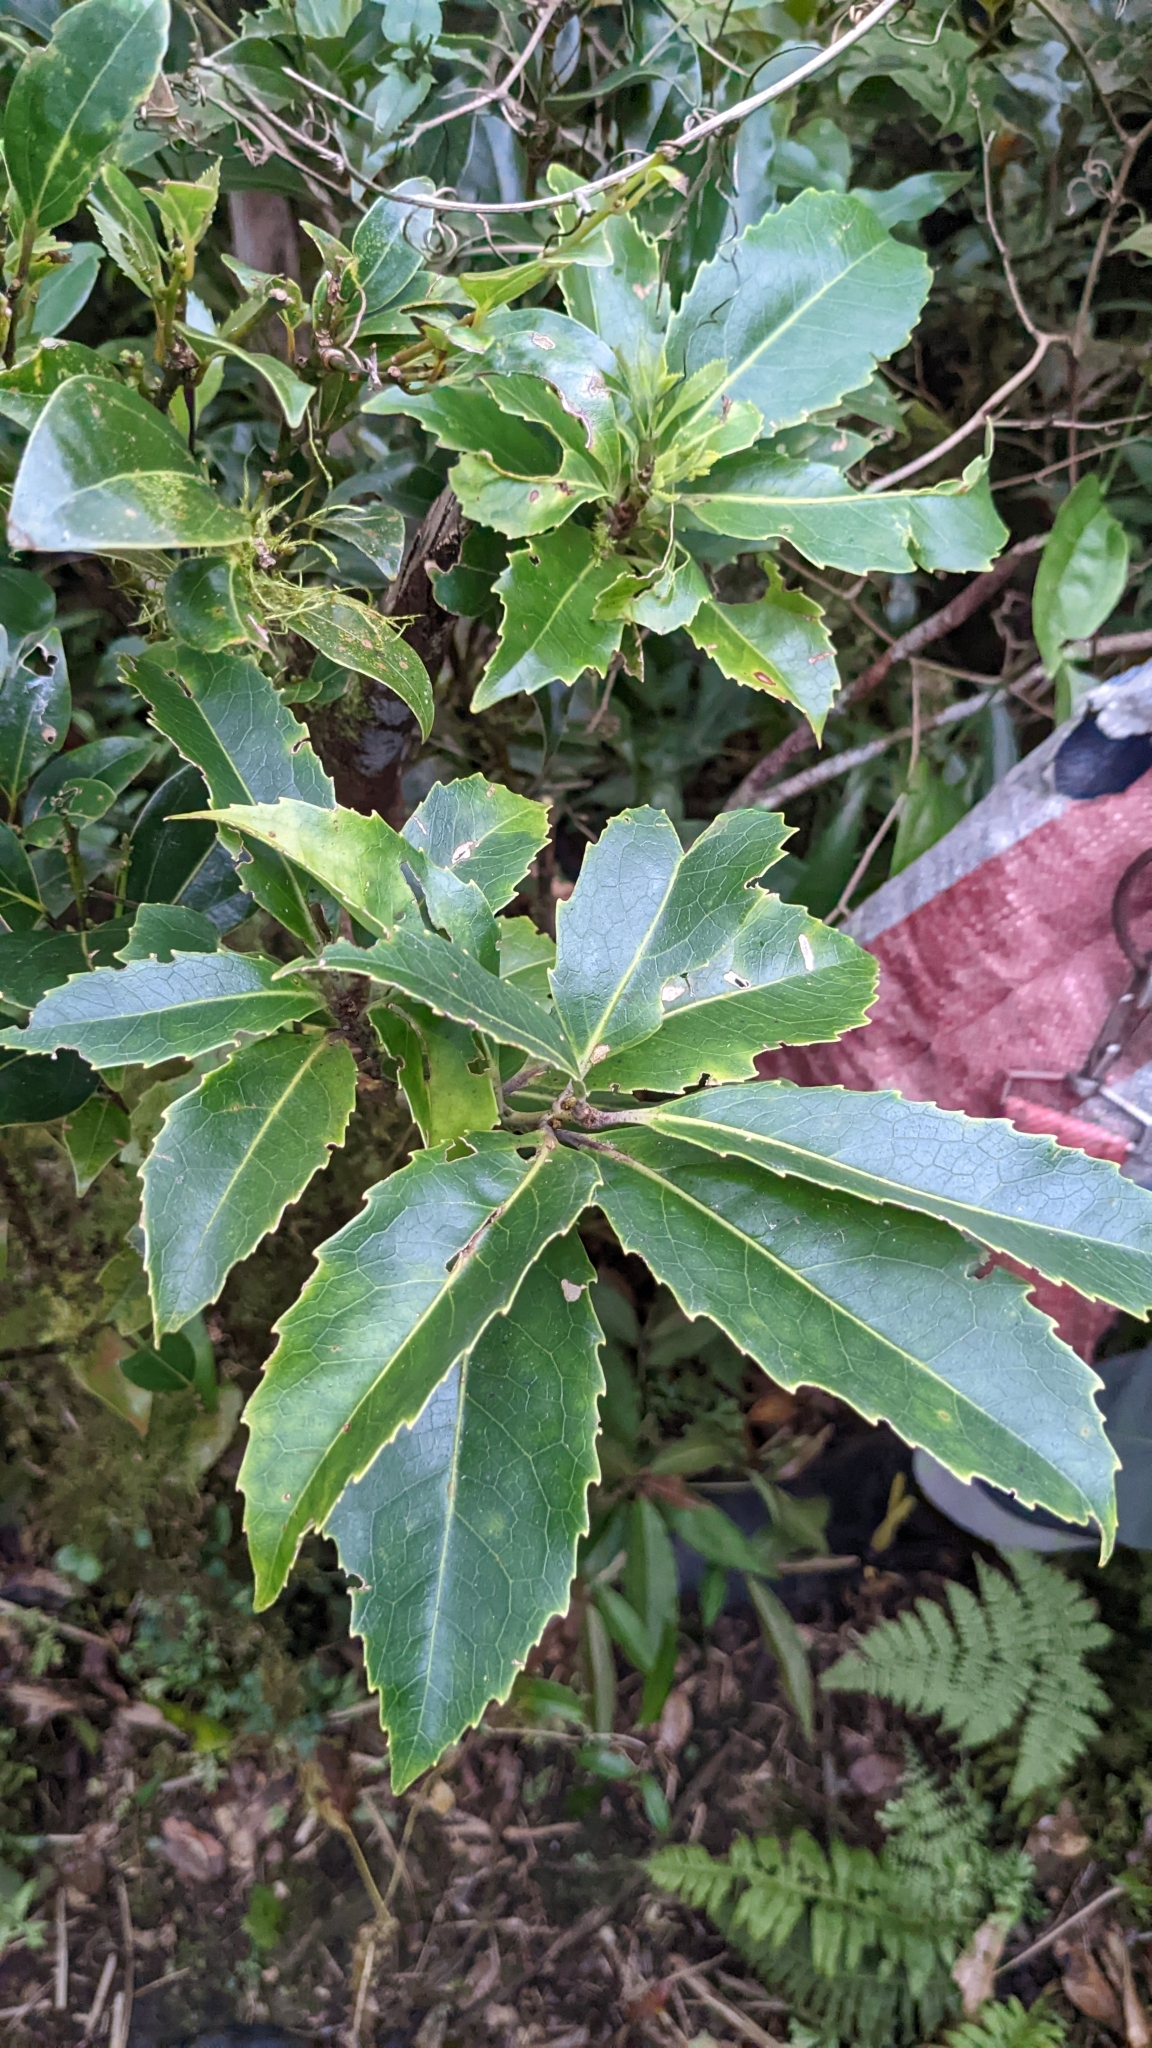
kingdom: Plantae
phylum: Tracheophyta
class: Magnoliopsida
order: Proteales
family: Proteaceae
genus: Helicia
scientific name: Helicia rengetiensis
